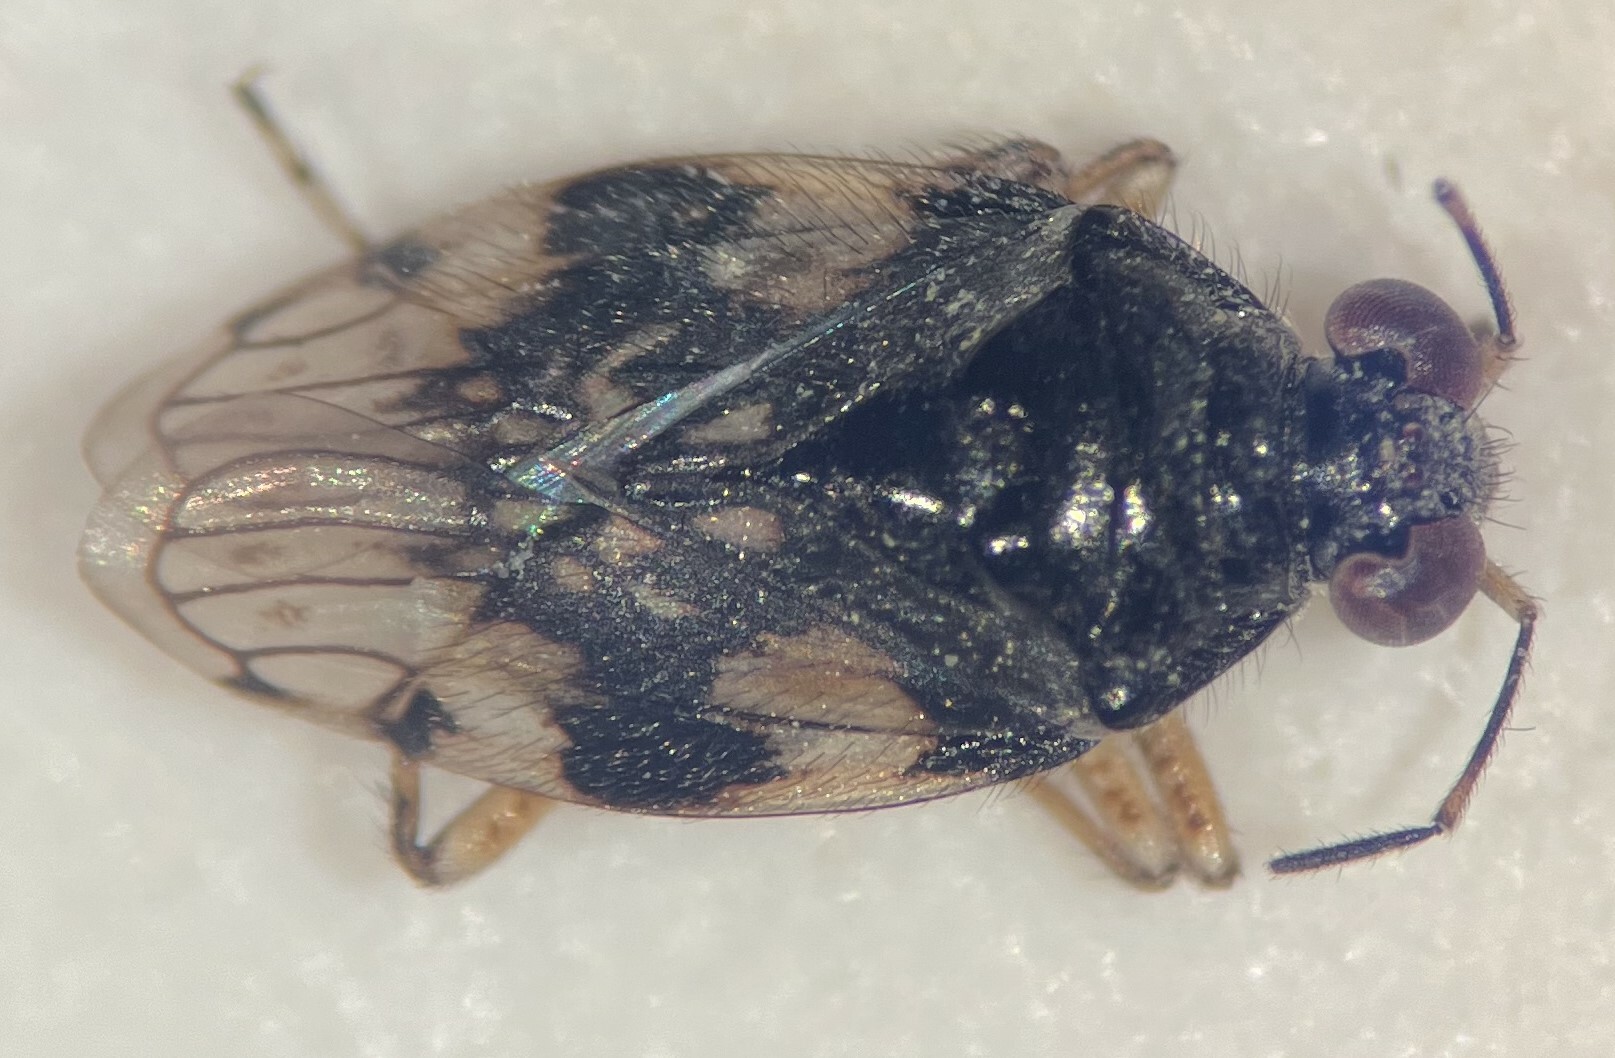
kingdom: Animalia
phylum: Arthropoda
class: Insecta
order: Hemiptera
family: Saldidae
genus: Saldula
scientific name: Saldula pexa
